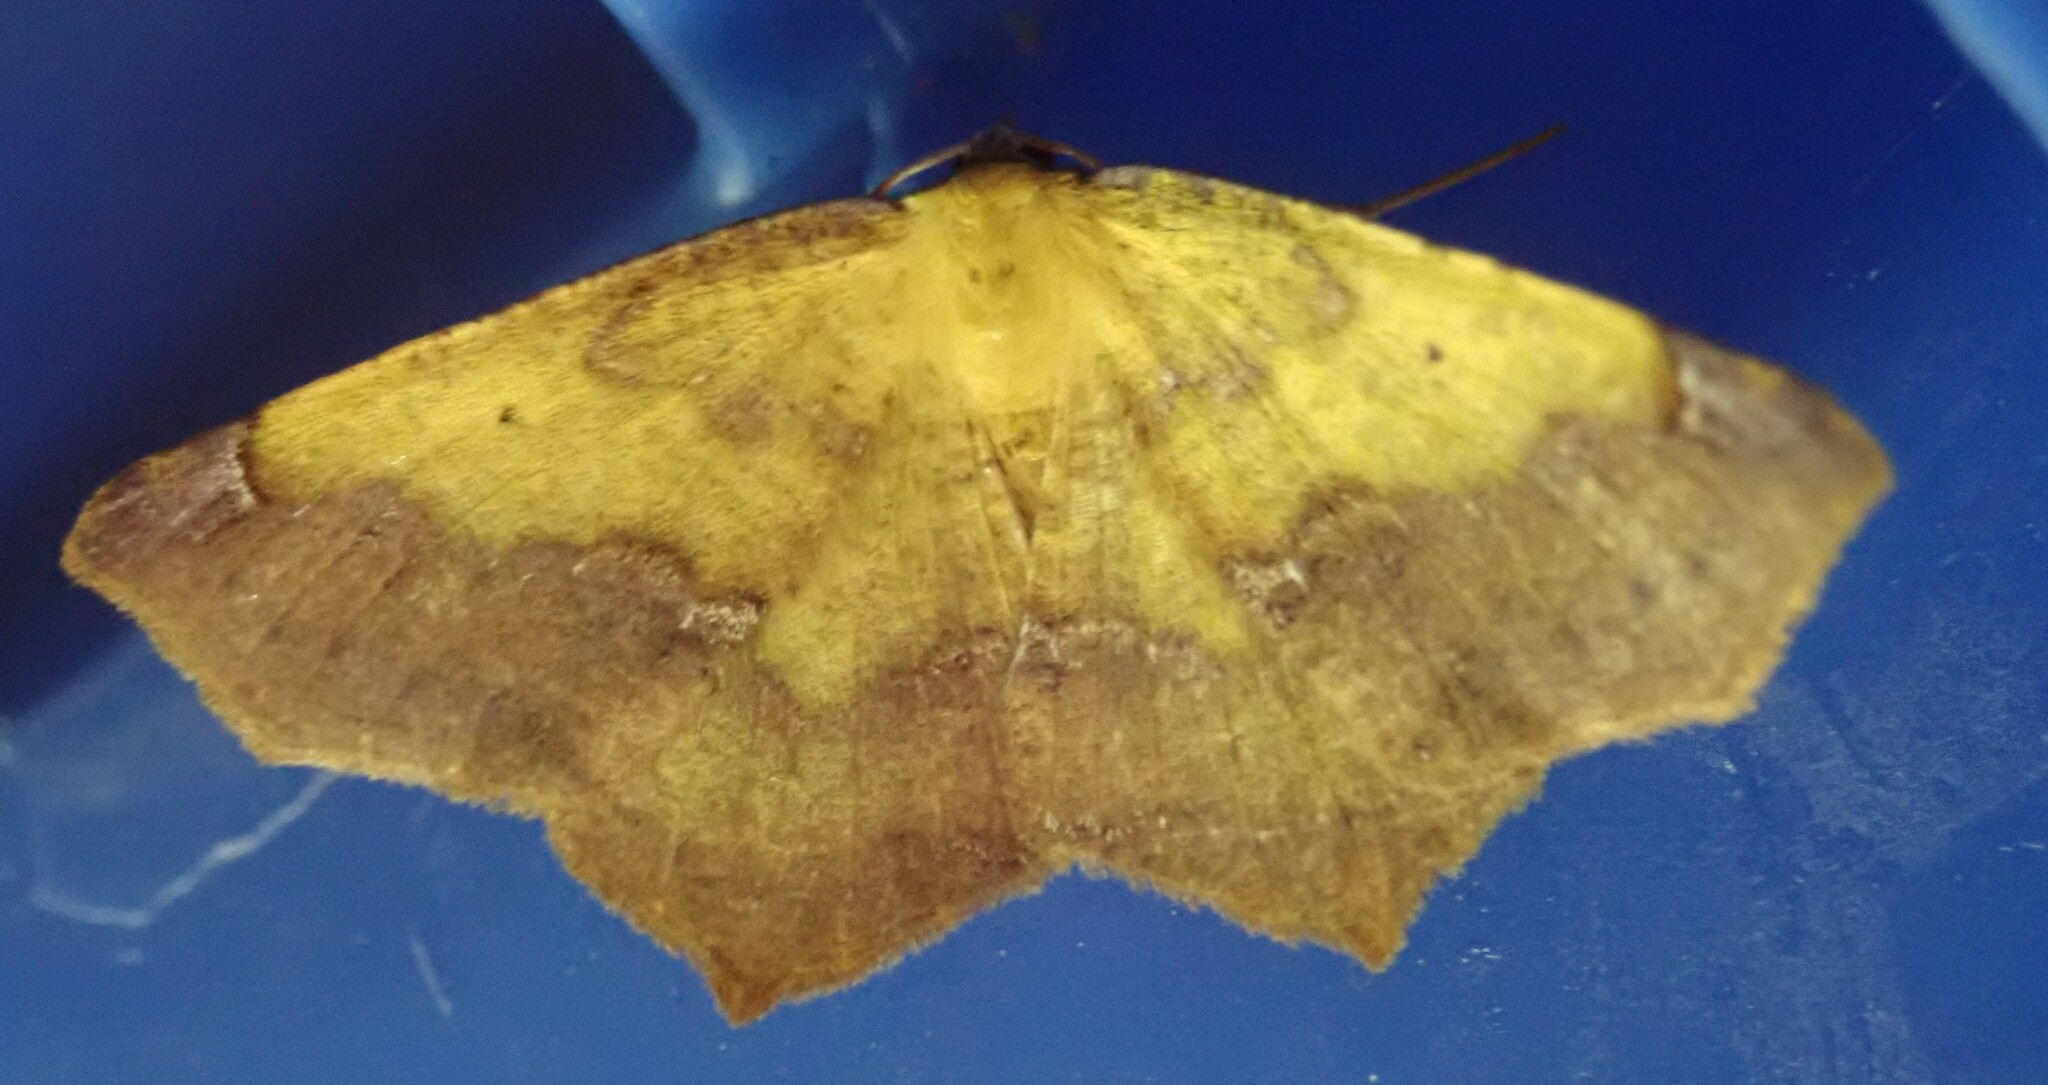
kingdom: Animalia
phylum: Arthropoda
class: Insecta
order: Lepidoptera
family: Geometridae
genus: Antepione
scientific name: Antepione thisoaria
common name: Variable antipione
